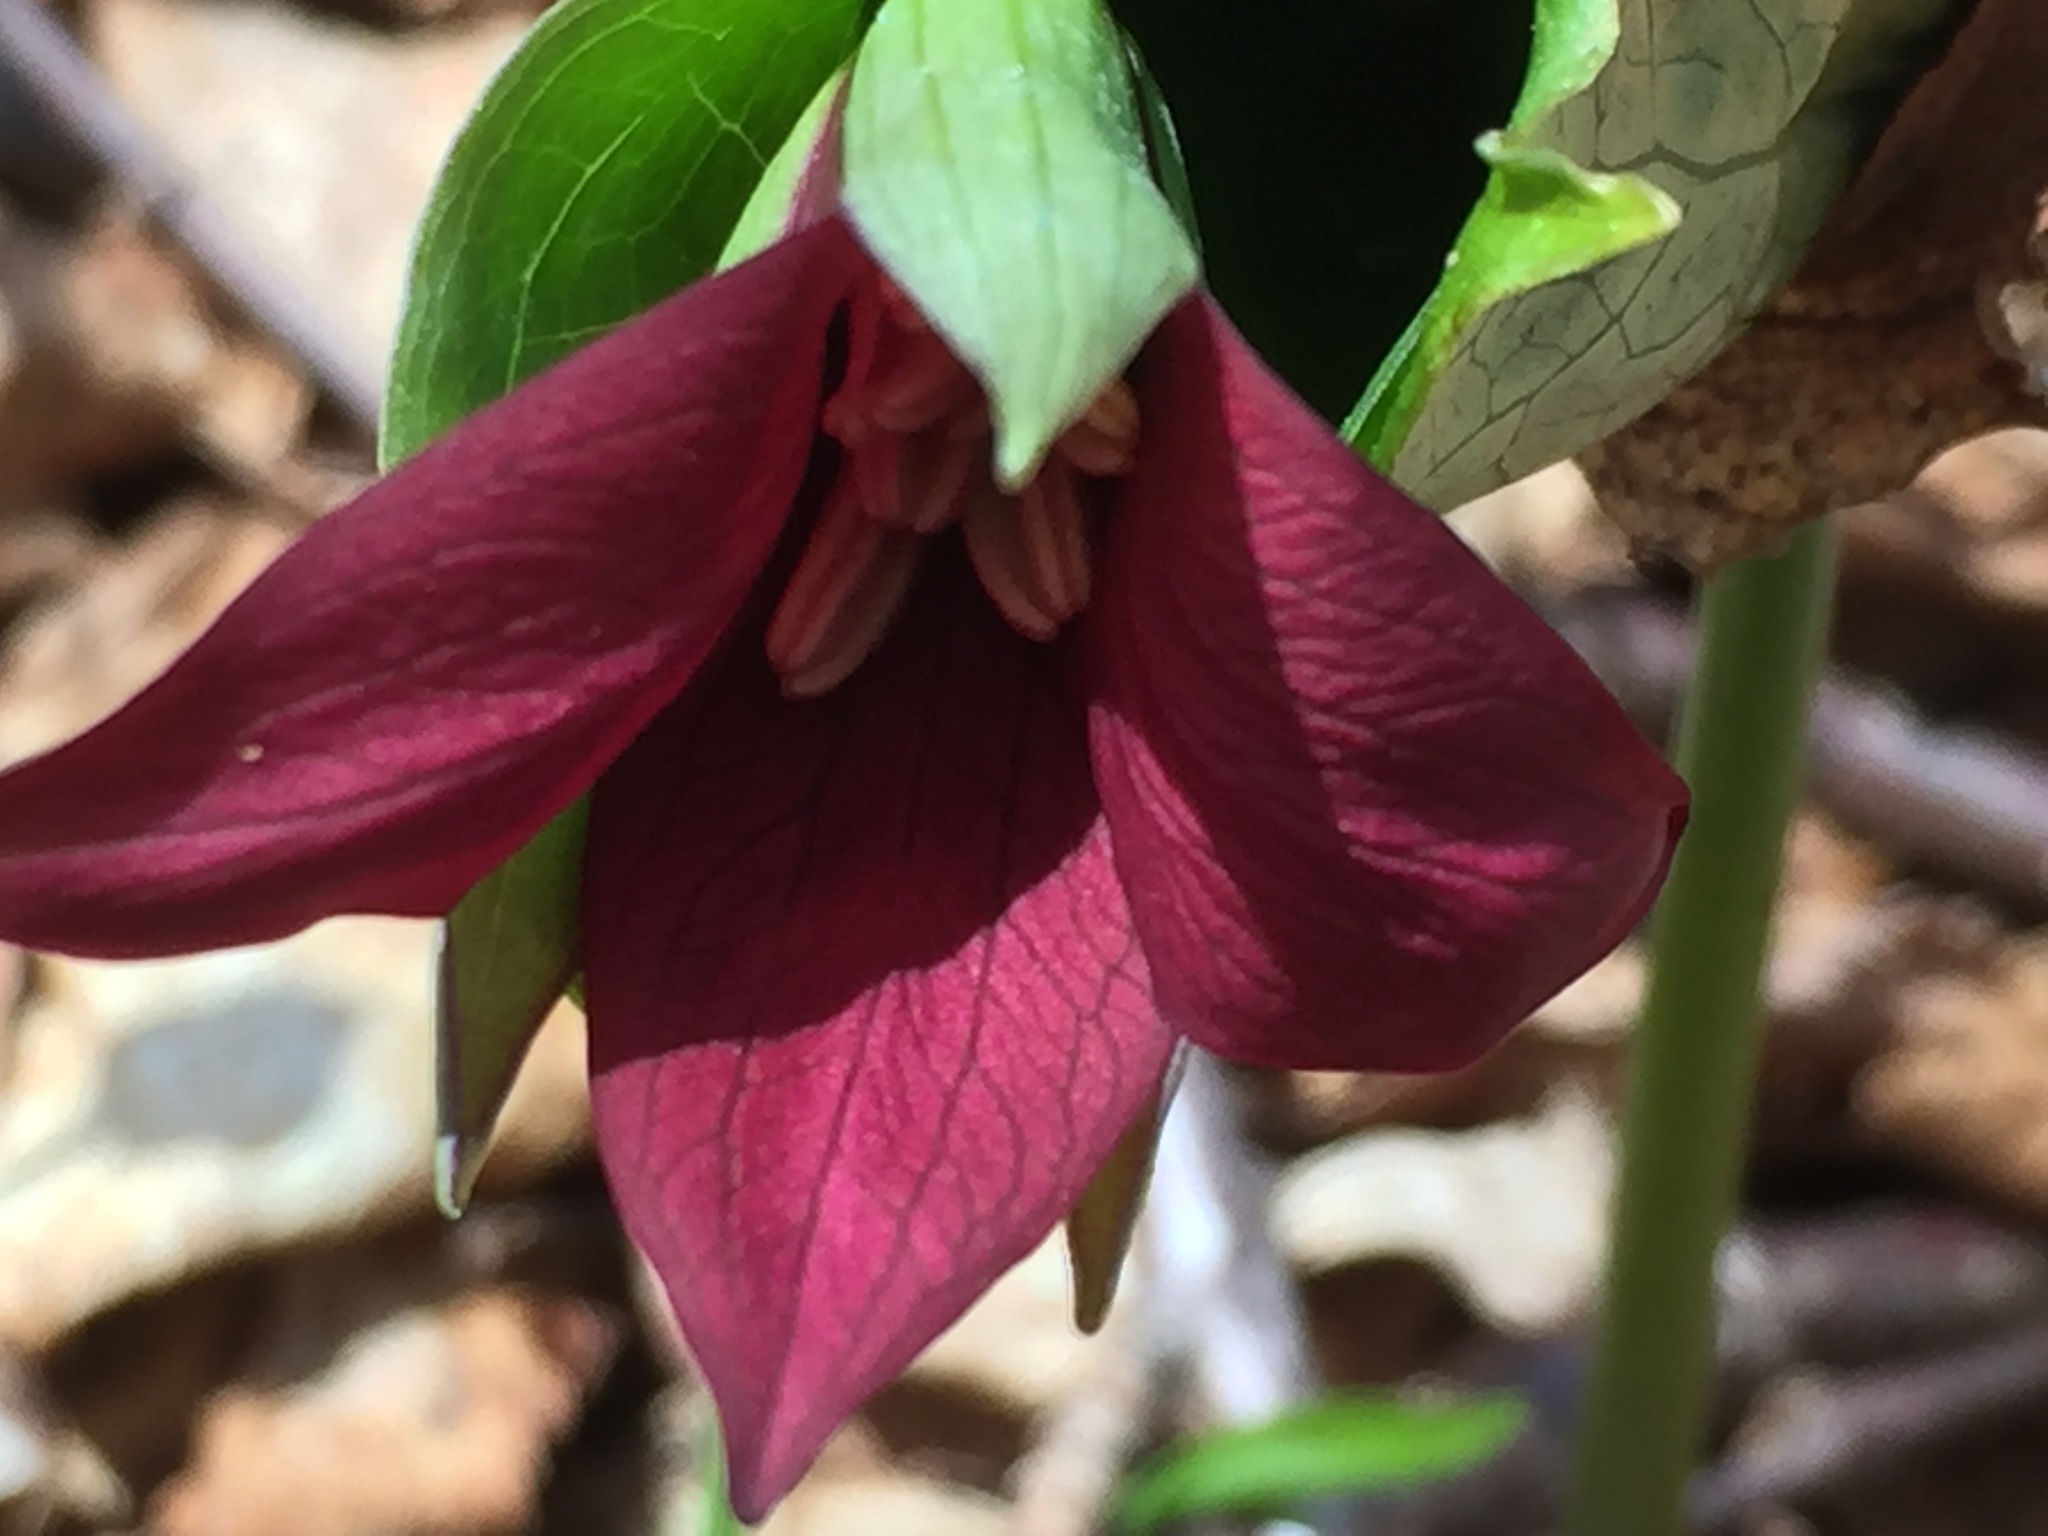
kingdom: Plantae
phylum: Tracheophyta
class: Liliopsida
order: Liliales
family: Melanthiaceae
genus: Trillium
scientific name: Trillium erectum
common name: Purple trillium
